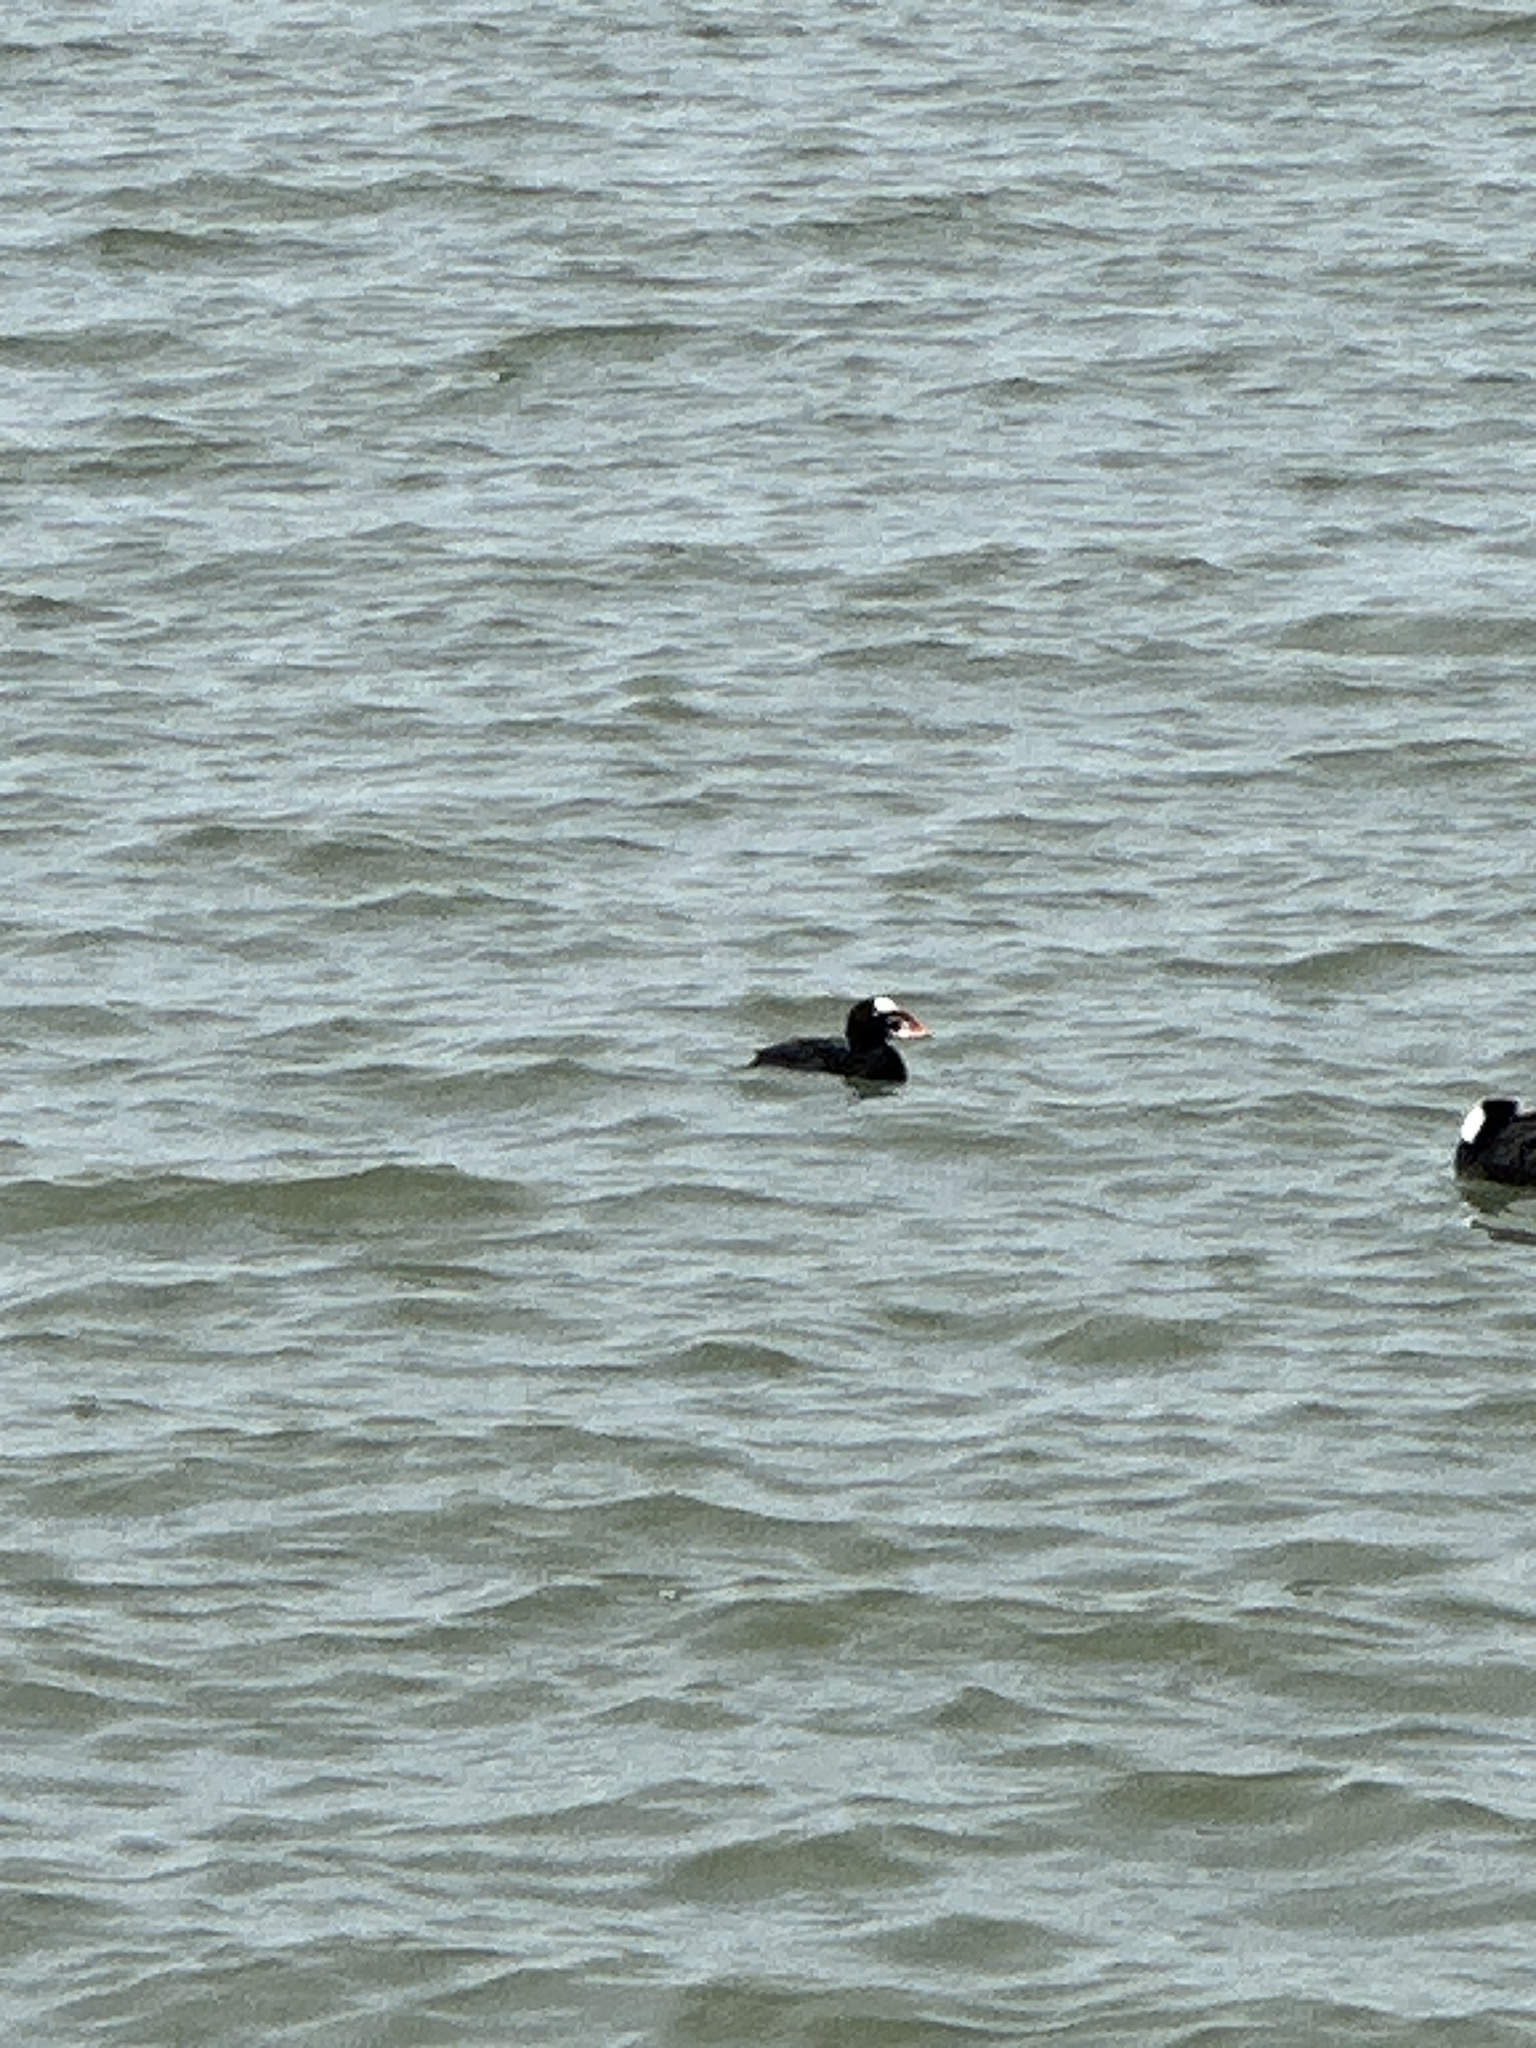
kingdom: Animalia
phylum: Chordata
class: Aves
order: Anseriformes
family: Anatidae
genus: Melanitta
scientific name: Melanitta perspicillata
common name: Surf scoter
